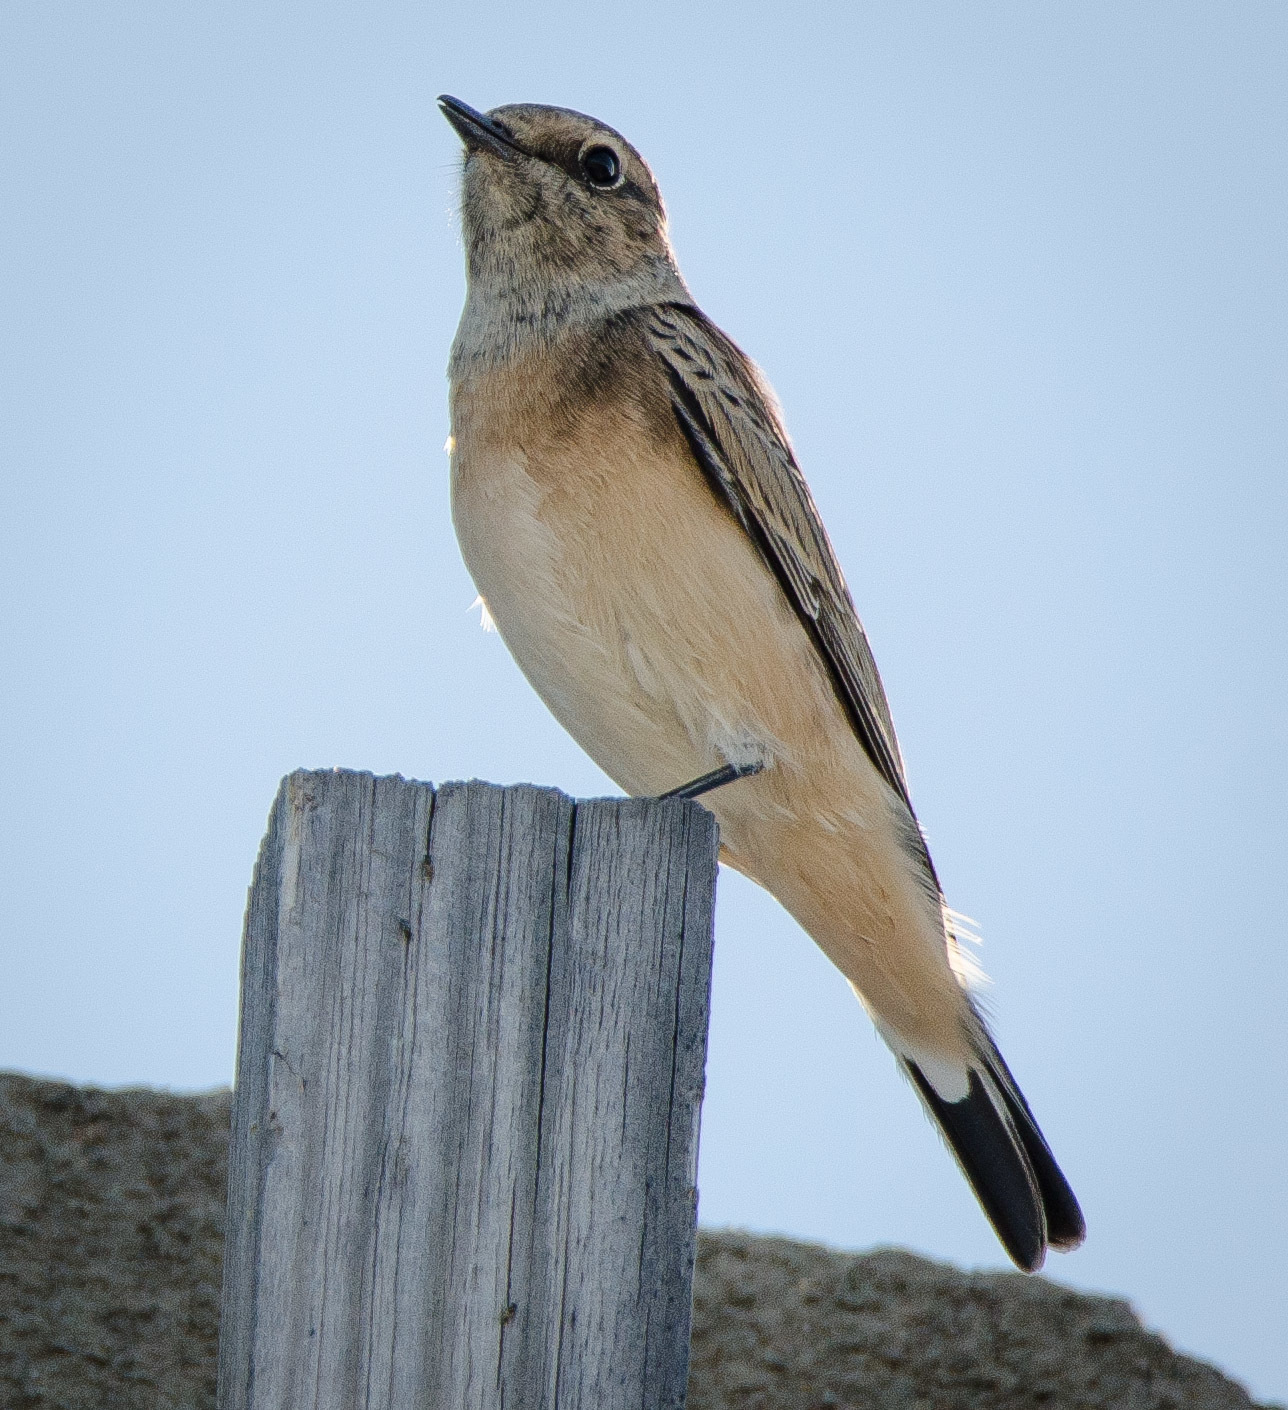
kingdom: Animalia
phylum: Chordata
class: Aves
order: Passeriformes
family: Muscicapidae
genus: Oenanthe
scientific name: Oenanthe isabellina
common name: Isabelline wheatear
